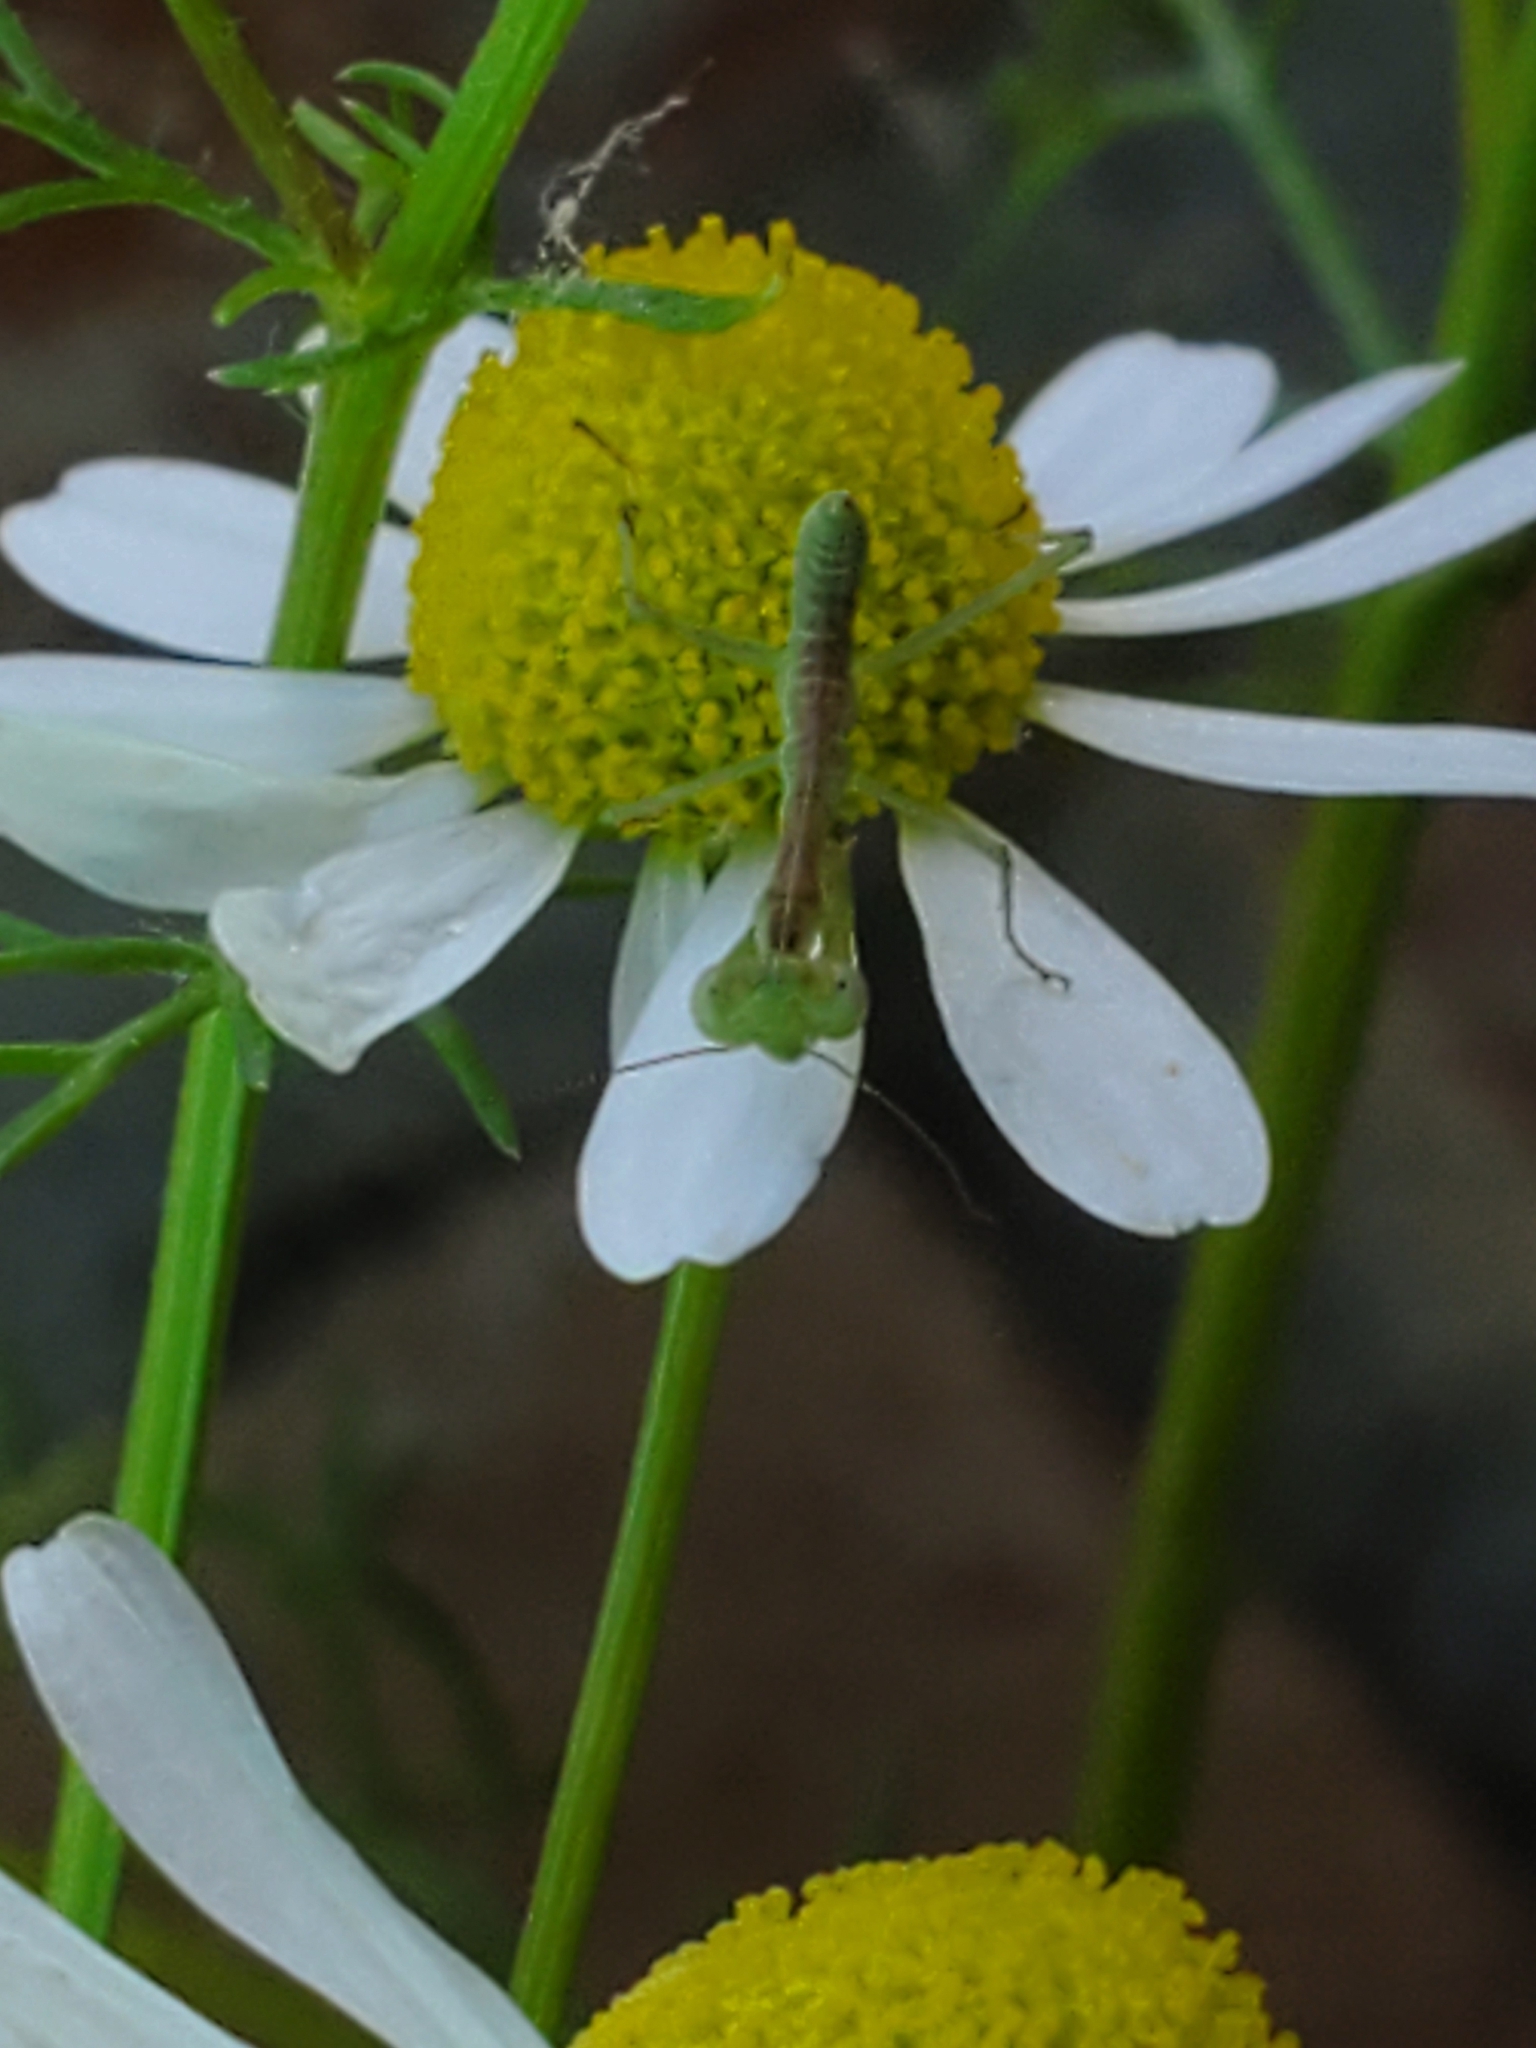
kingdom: Animalia
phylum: Arthropoda
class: Insecta
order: Mantodea
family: Mantidae
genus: Stagmomantis
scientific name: Stagmomantis limbata
